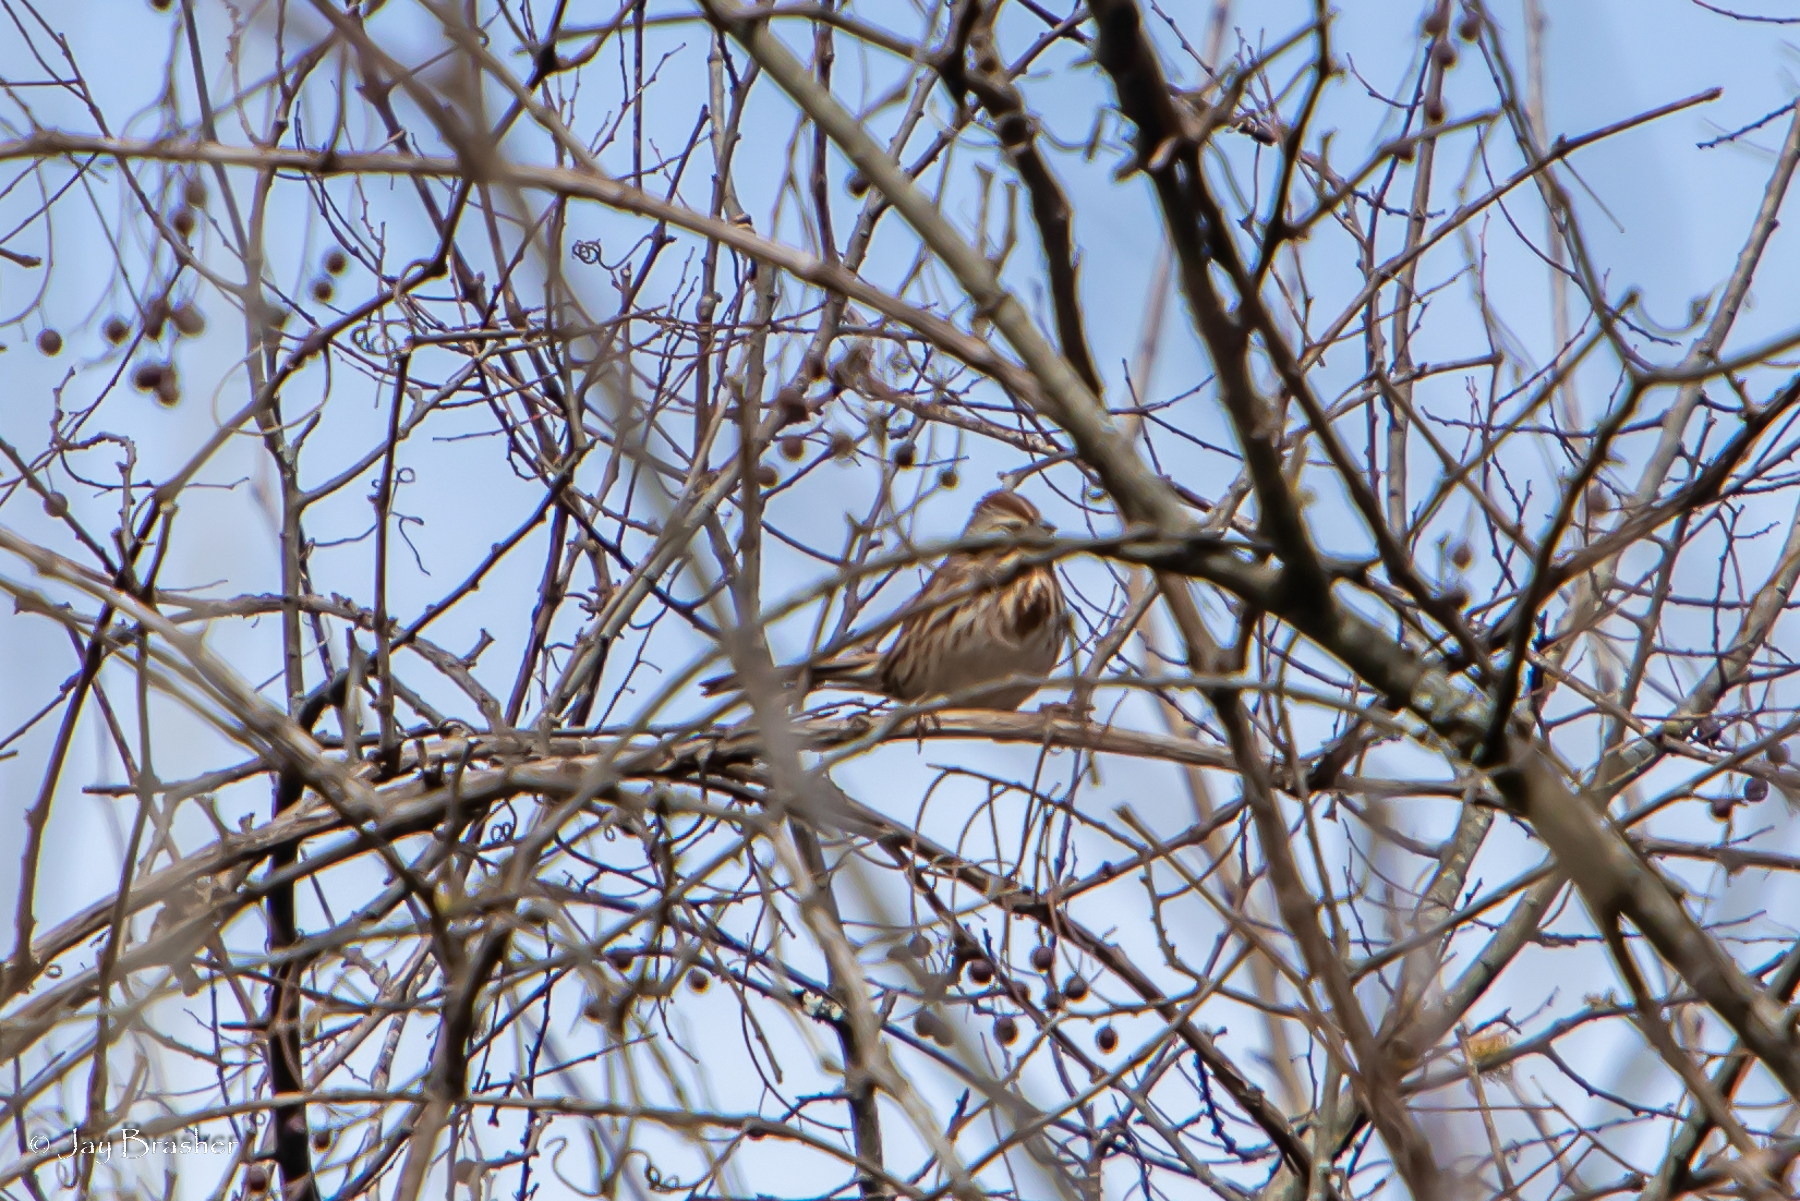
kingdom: Animalia
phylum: Chordata
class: Aves
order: Passeriformes
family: Passerellidae
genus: Melospiza
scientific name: Melospiza melodia
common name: Song sparrow
